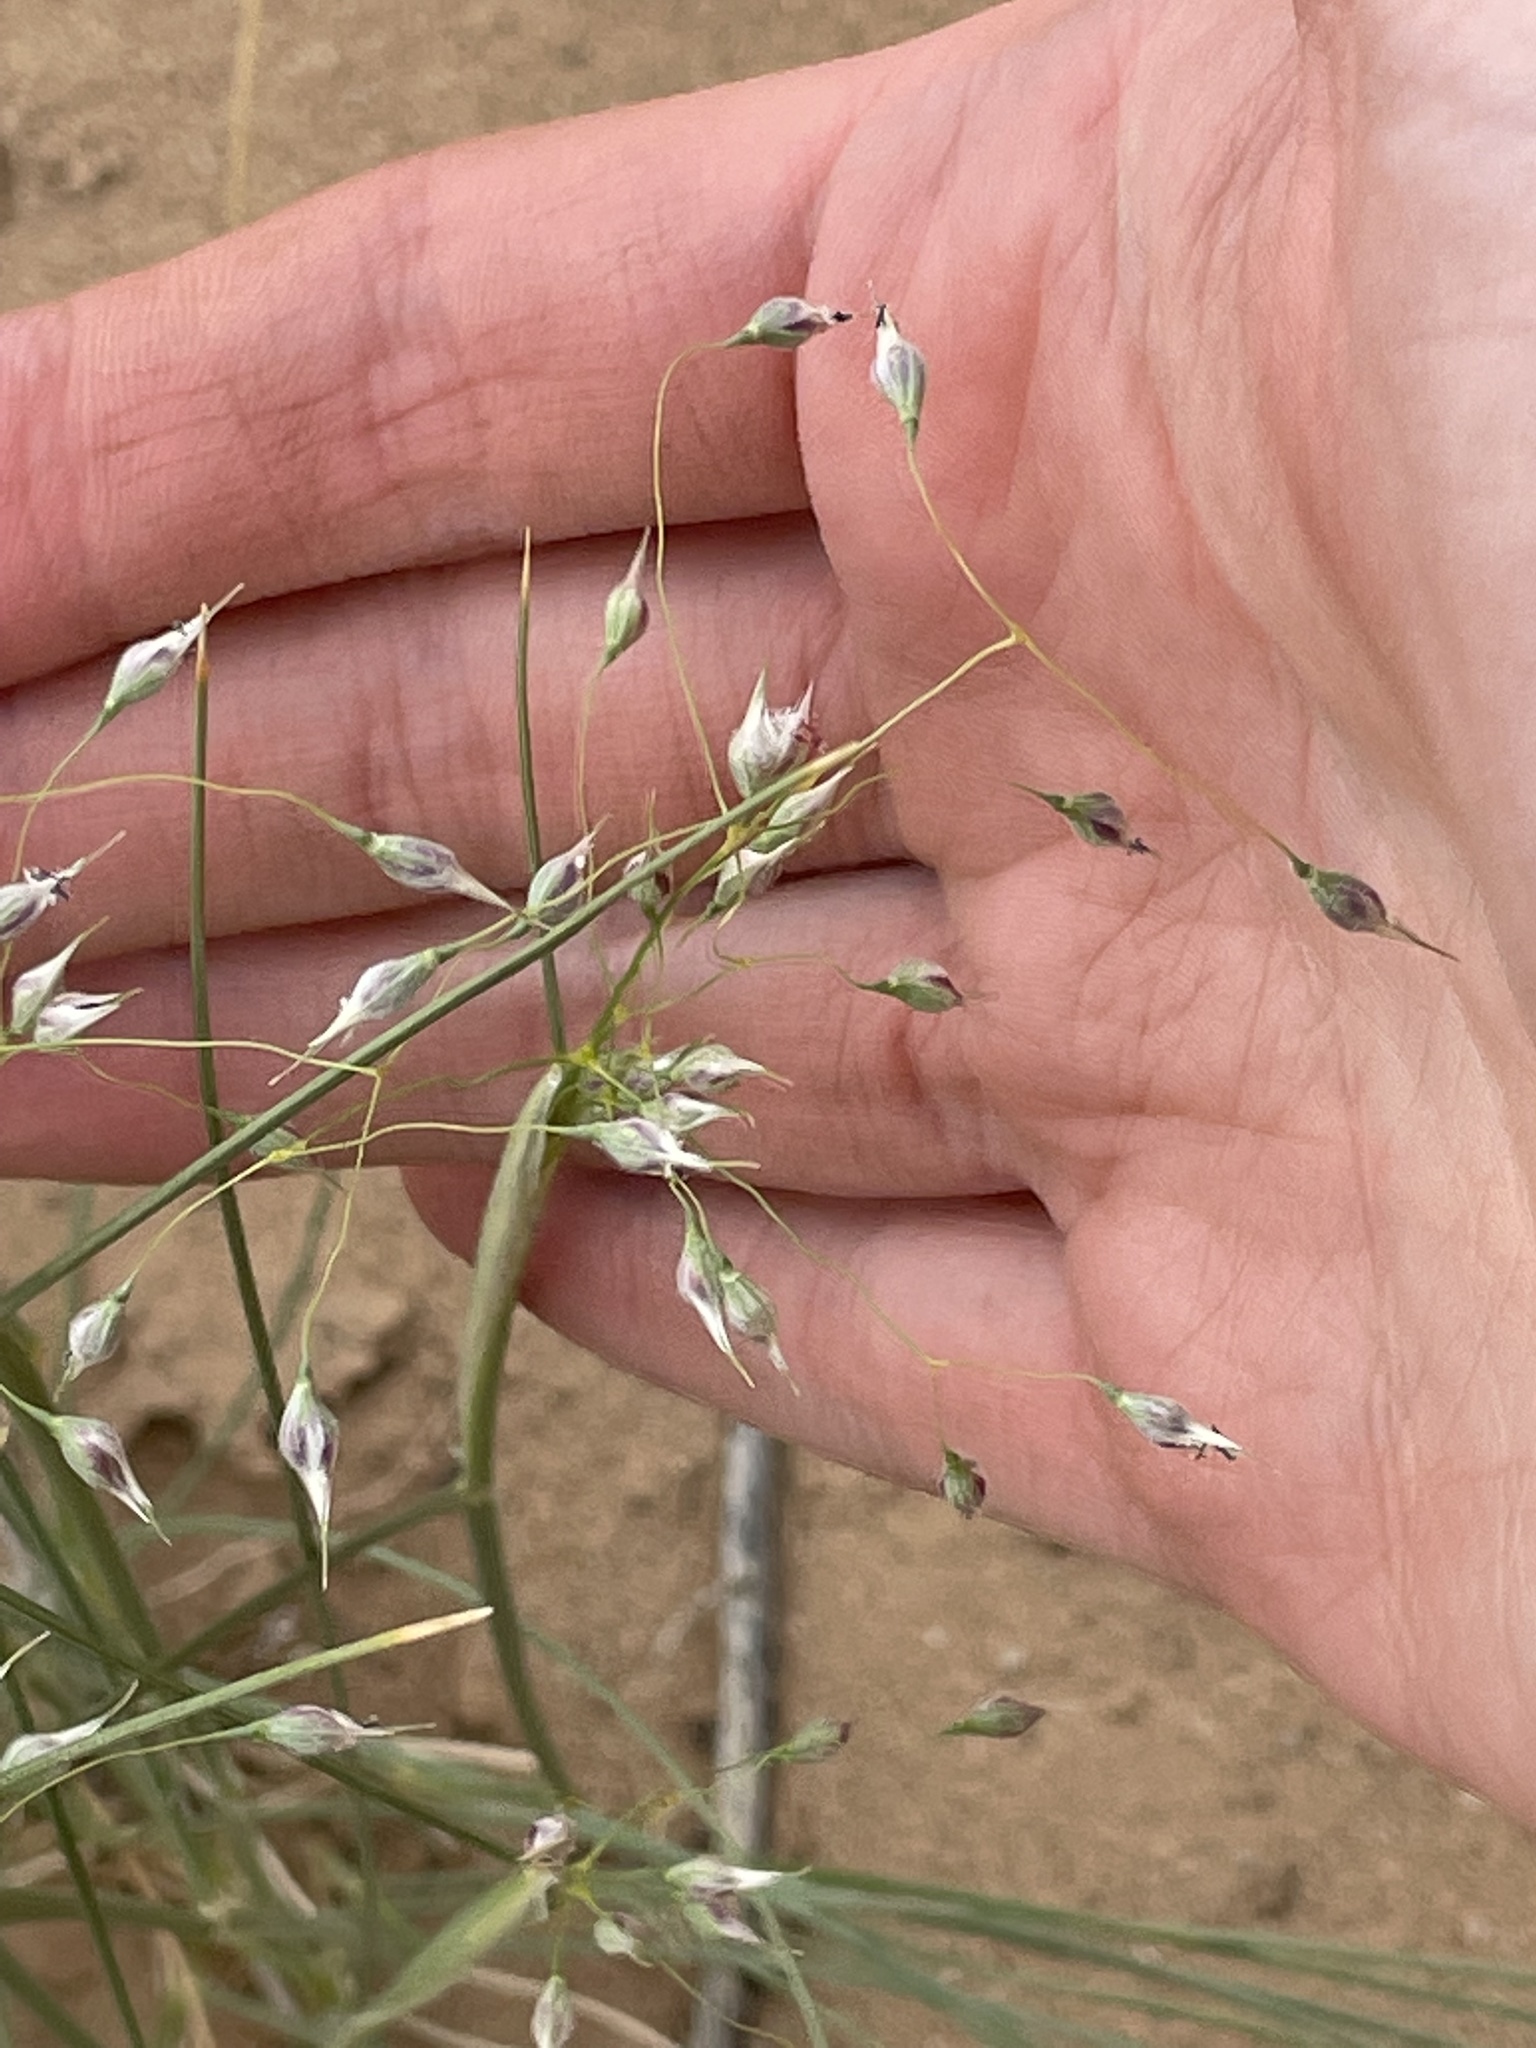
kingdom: Plantae
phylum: Tracheophyta
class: Liliopsida
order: Poales
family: Poaceae
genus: Eriocoma
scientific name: Eriocoma hymenoides
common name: Indian mountain ricegrass
